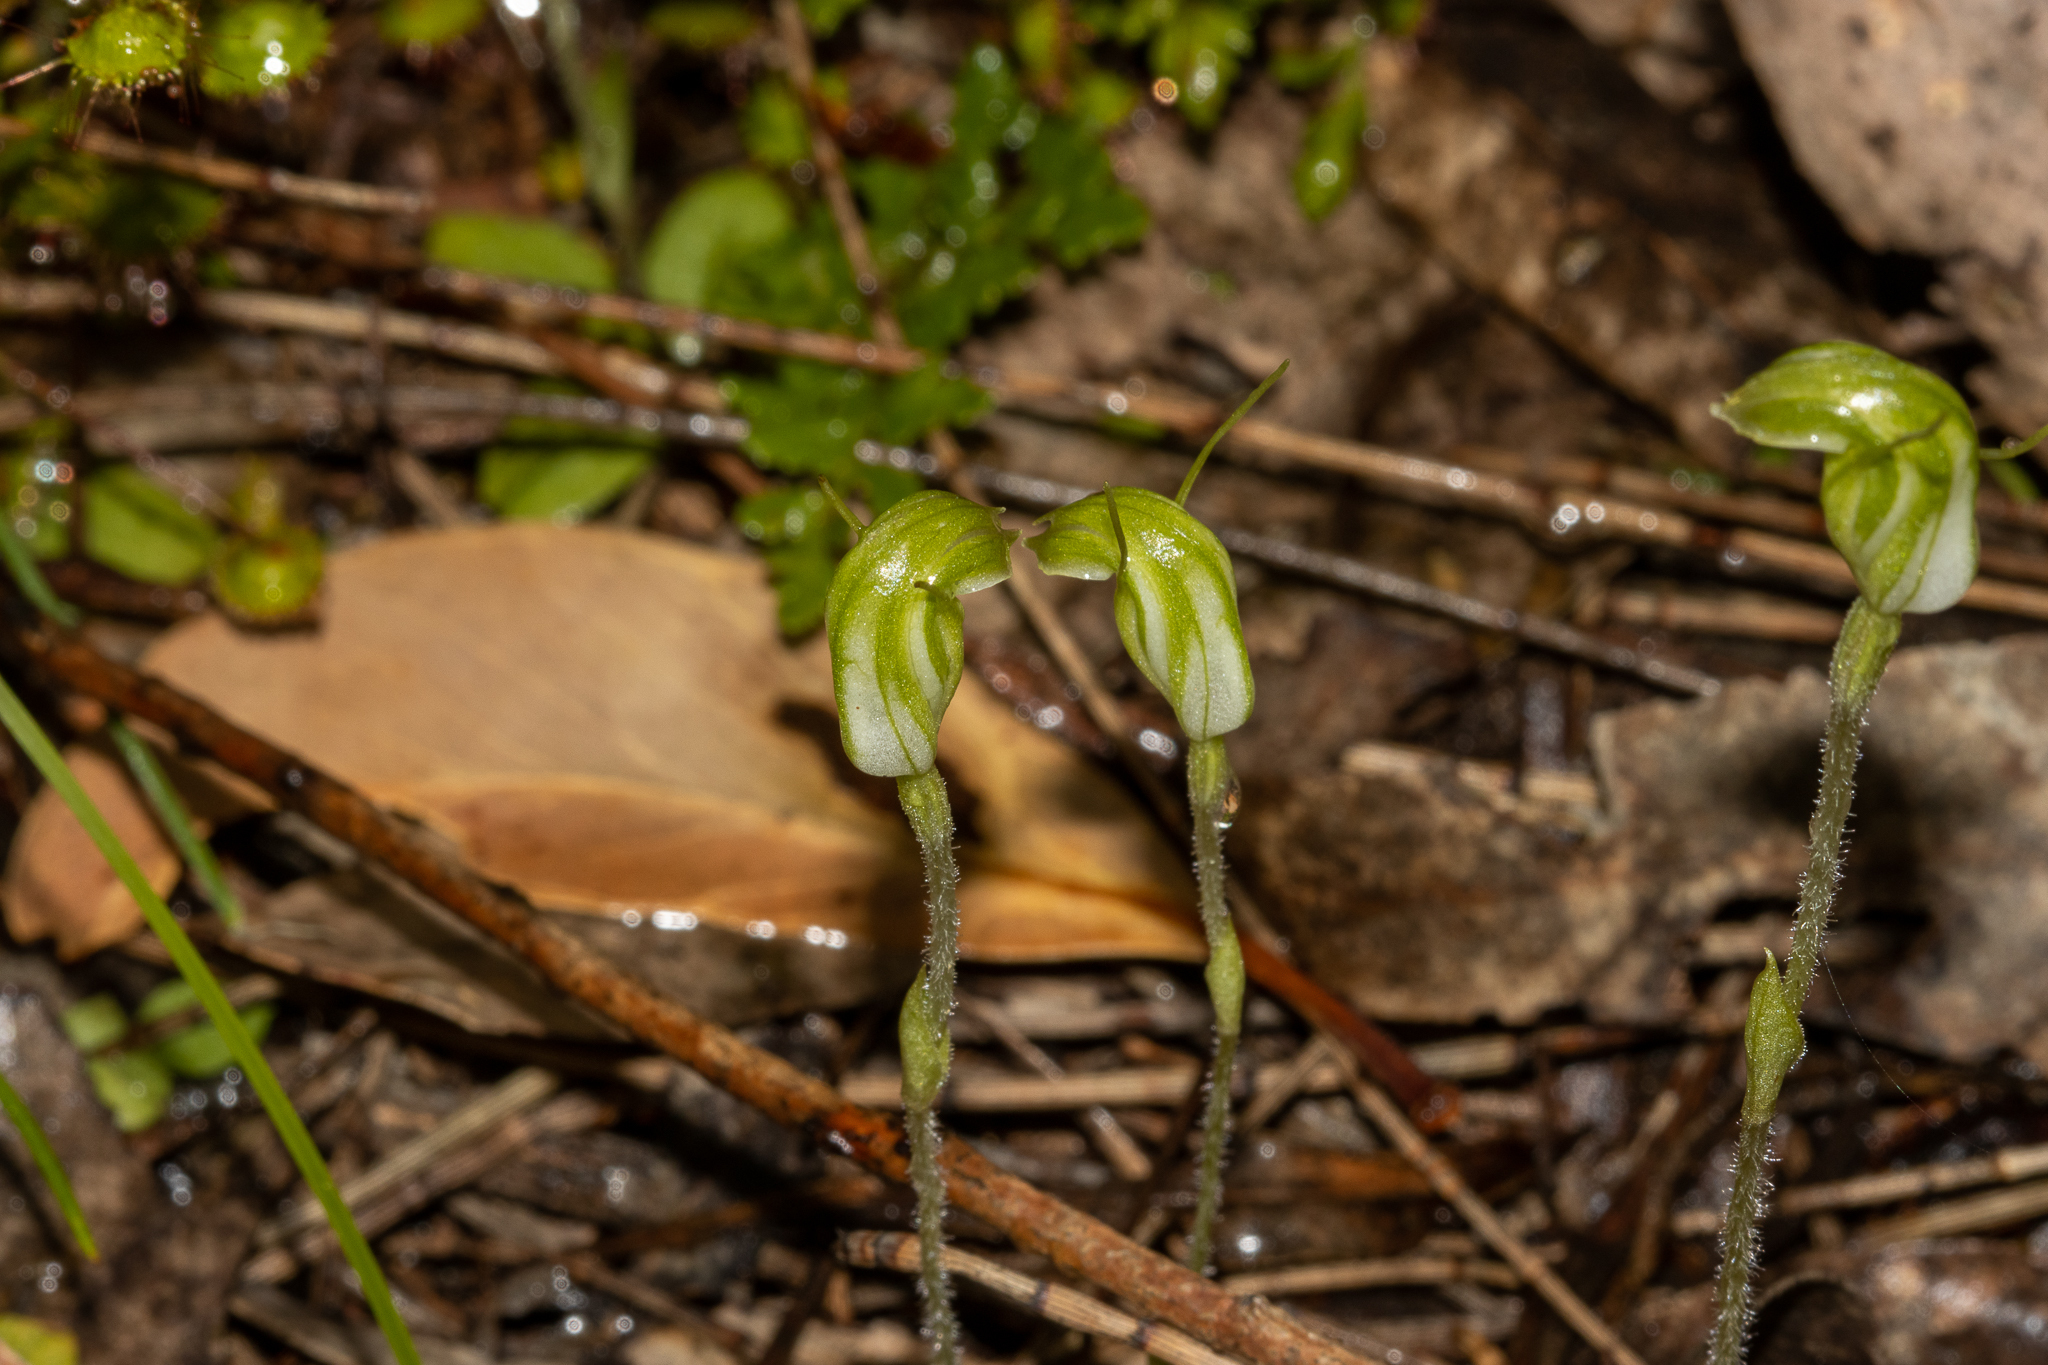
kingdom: Plantae
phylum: Tracheophyta
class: Liliopsida
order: Asparagales
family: Orchidaceae
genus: Pterostylis
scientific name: Pterostylis nana
